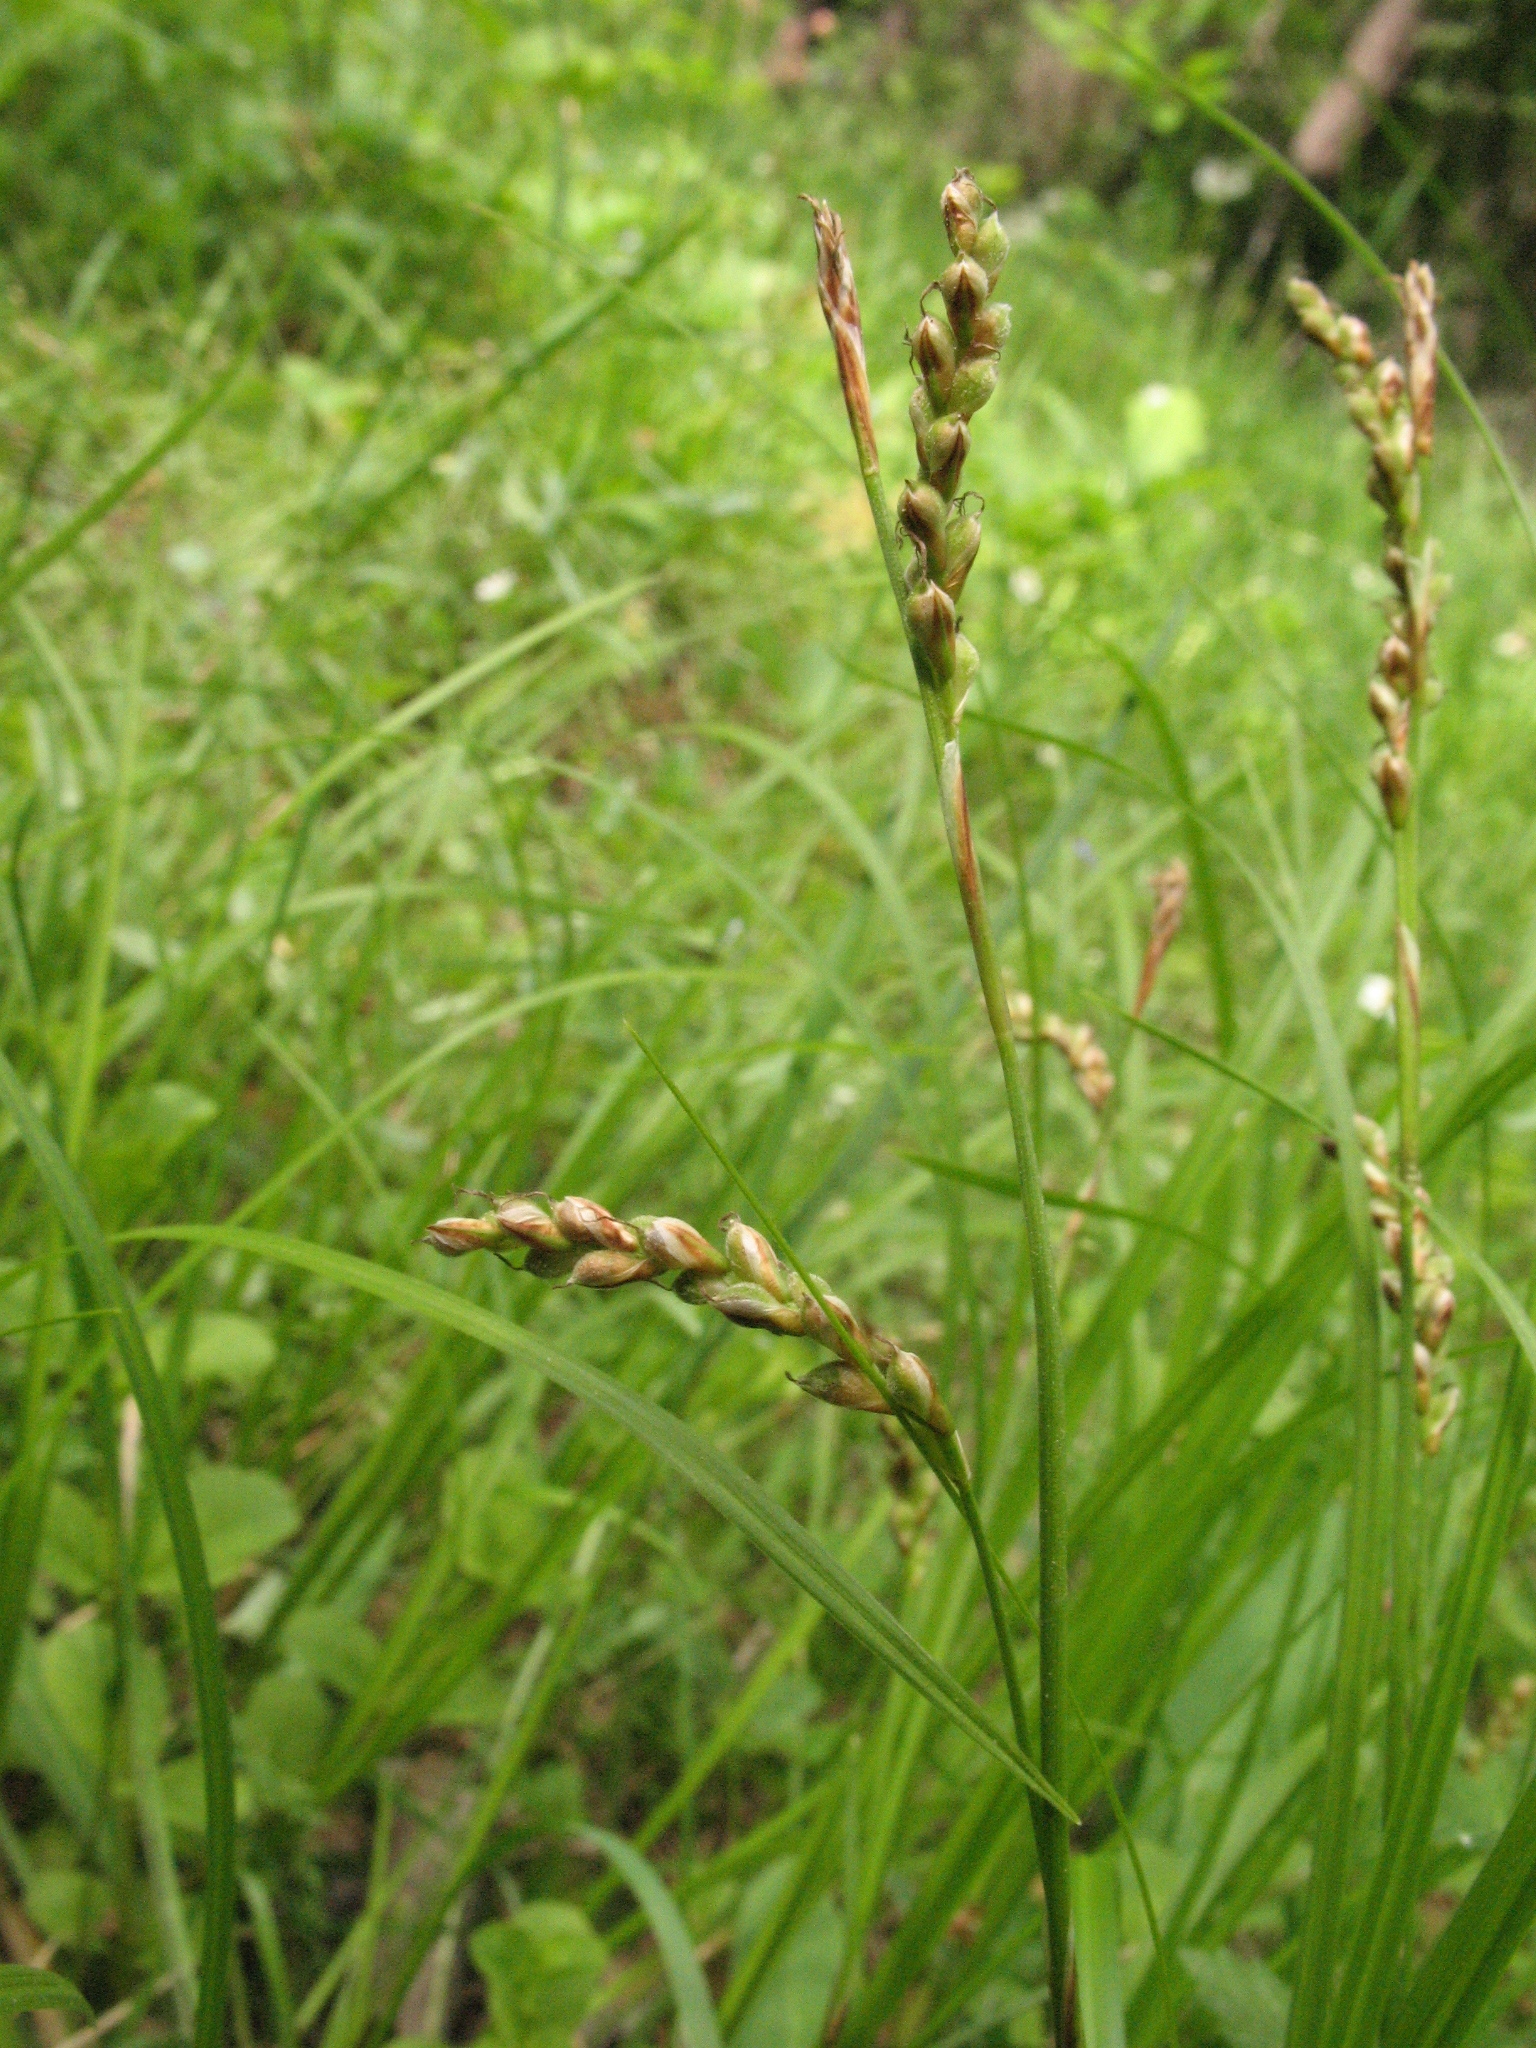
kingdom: Plantae
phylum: Tracheophyta
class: Liliopsida
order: Poales
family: Cyperaceae
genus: Carex
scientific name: Carex digitata
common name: Fingered sedge
